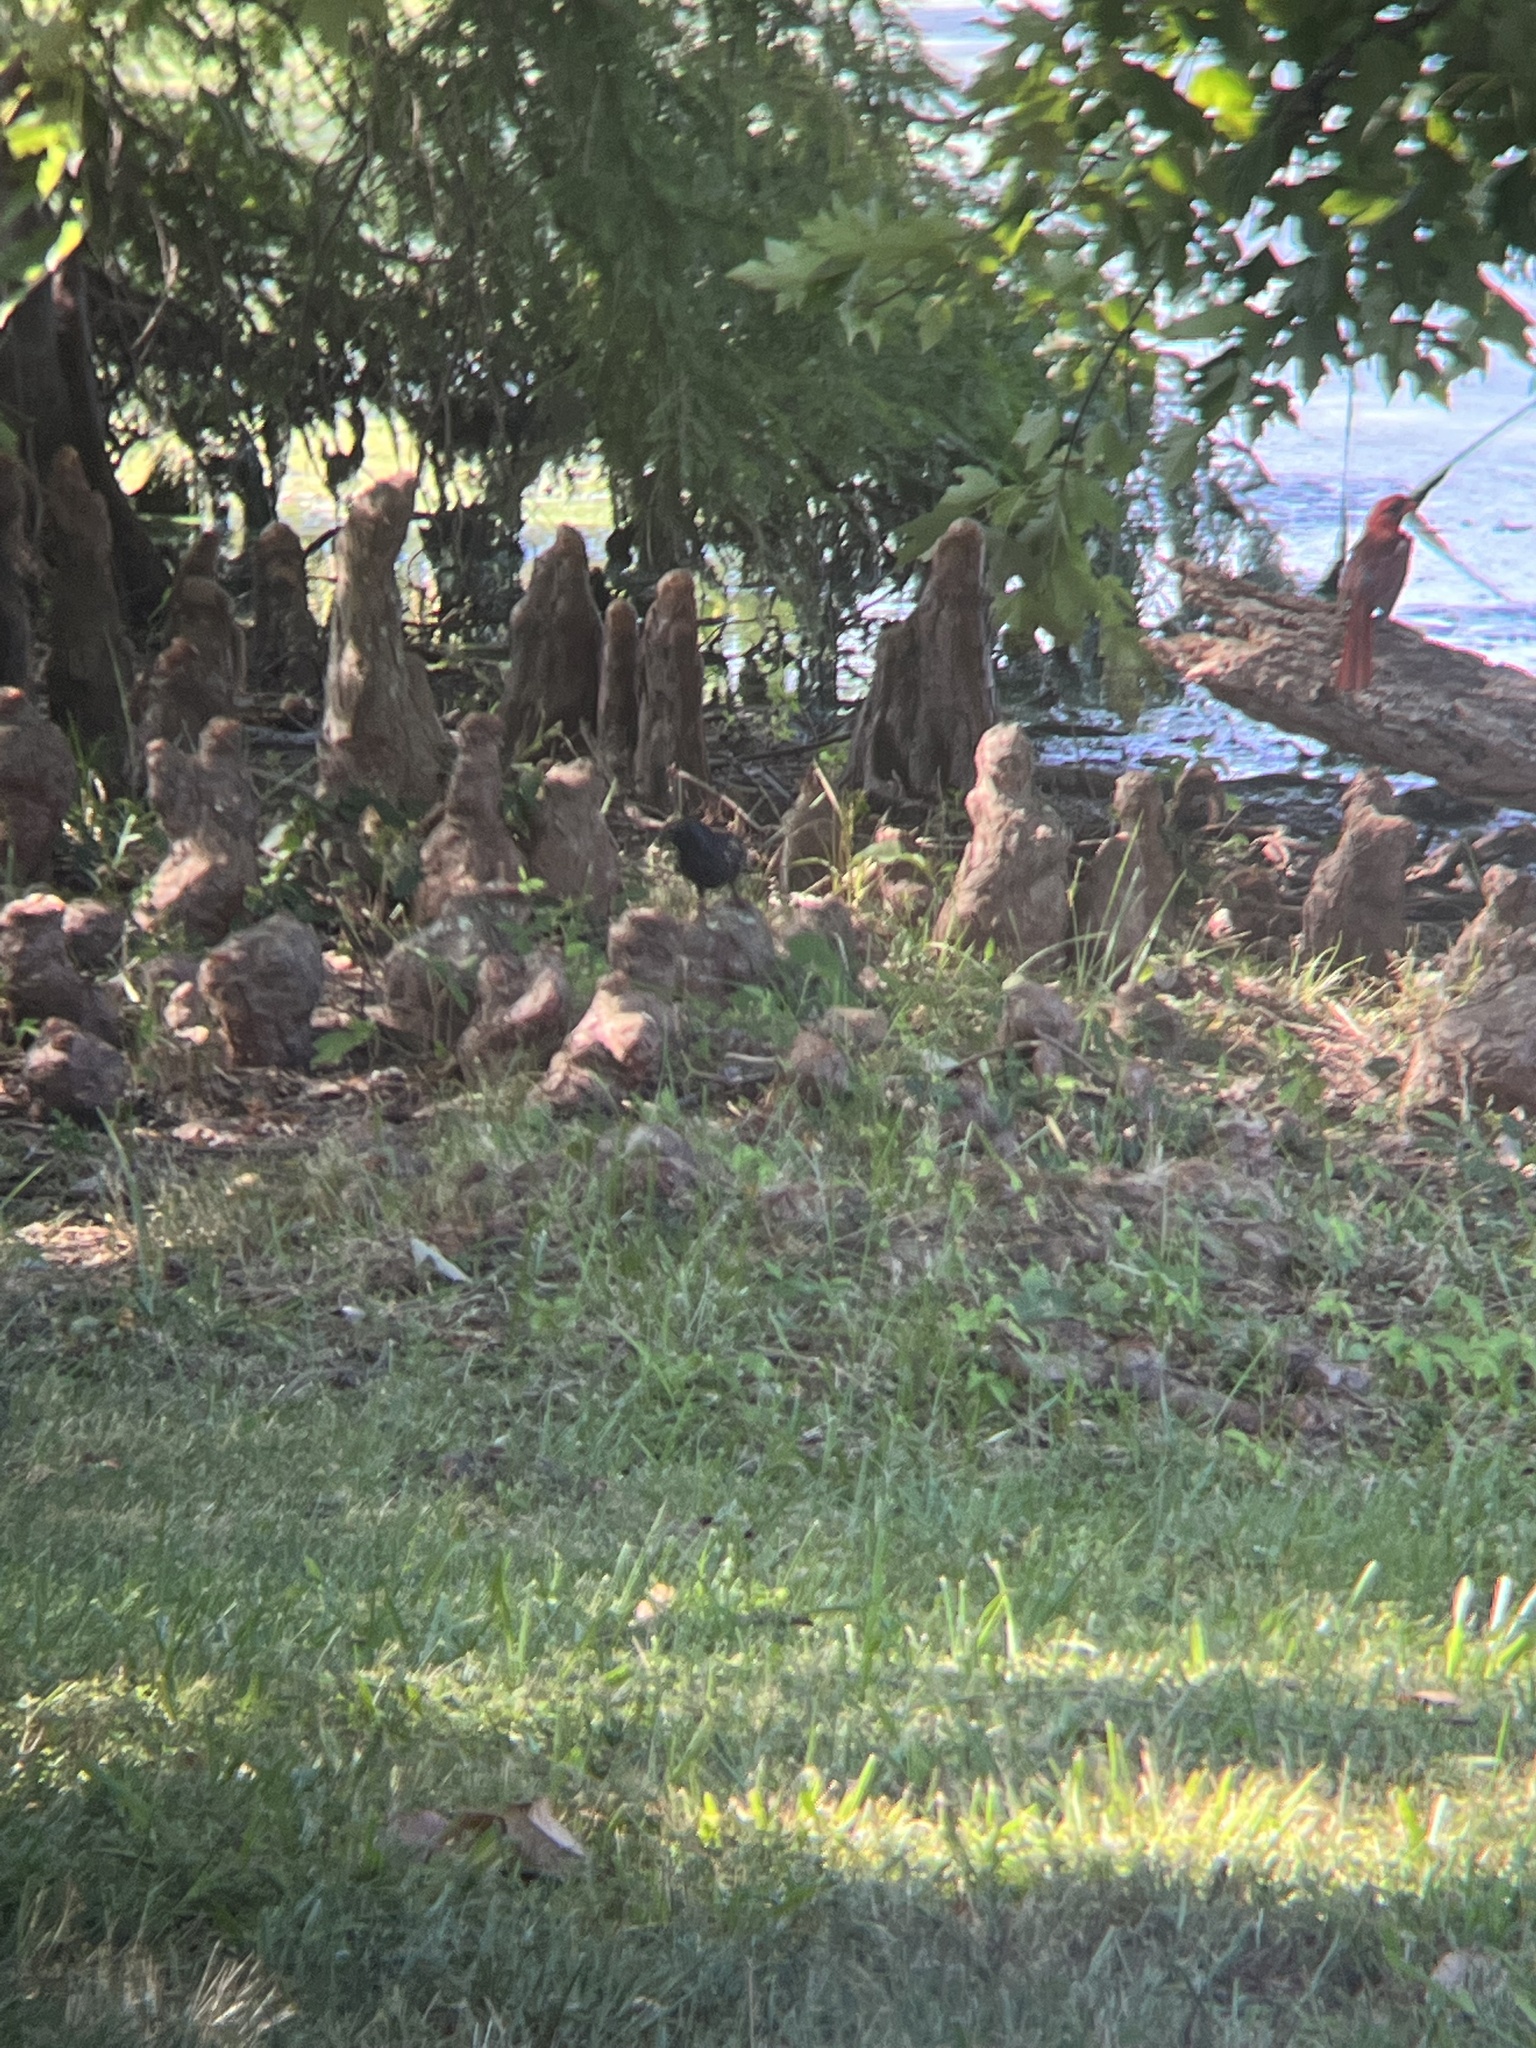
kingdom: Animalia
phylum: Chordata
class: Aves
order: Passeriformes
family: Sturnidae
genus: Sturnus
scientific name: Sturnus vulgaris
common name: Common starling
